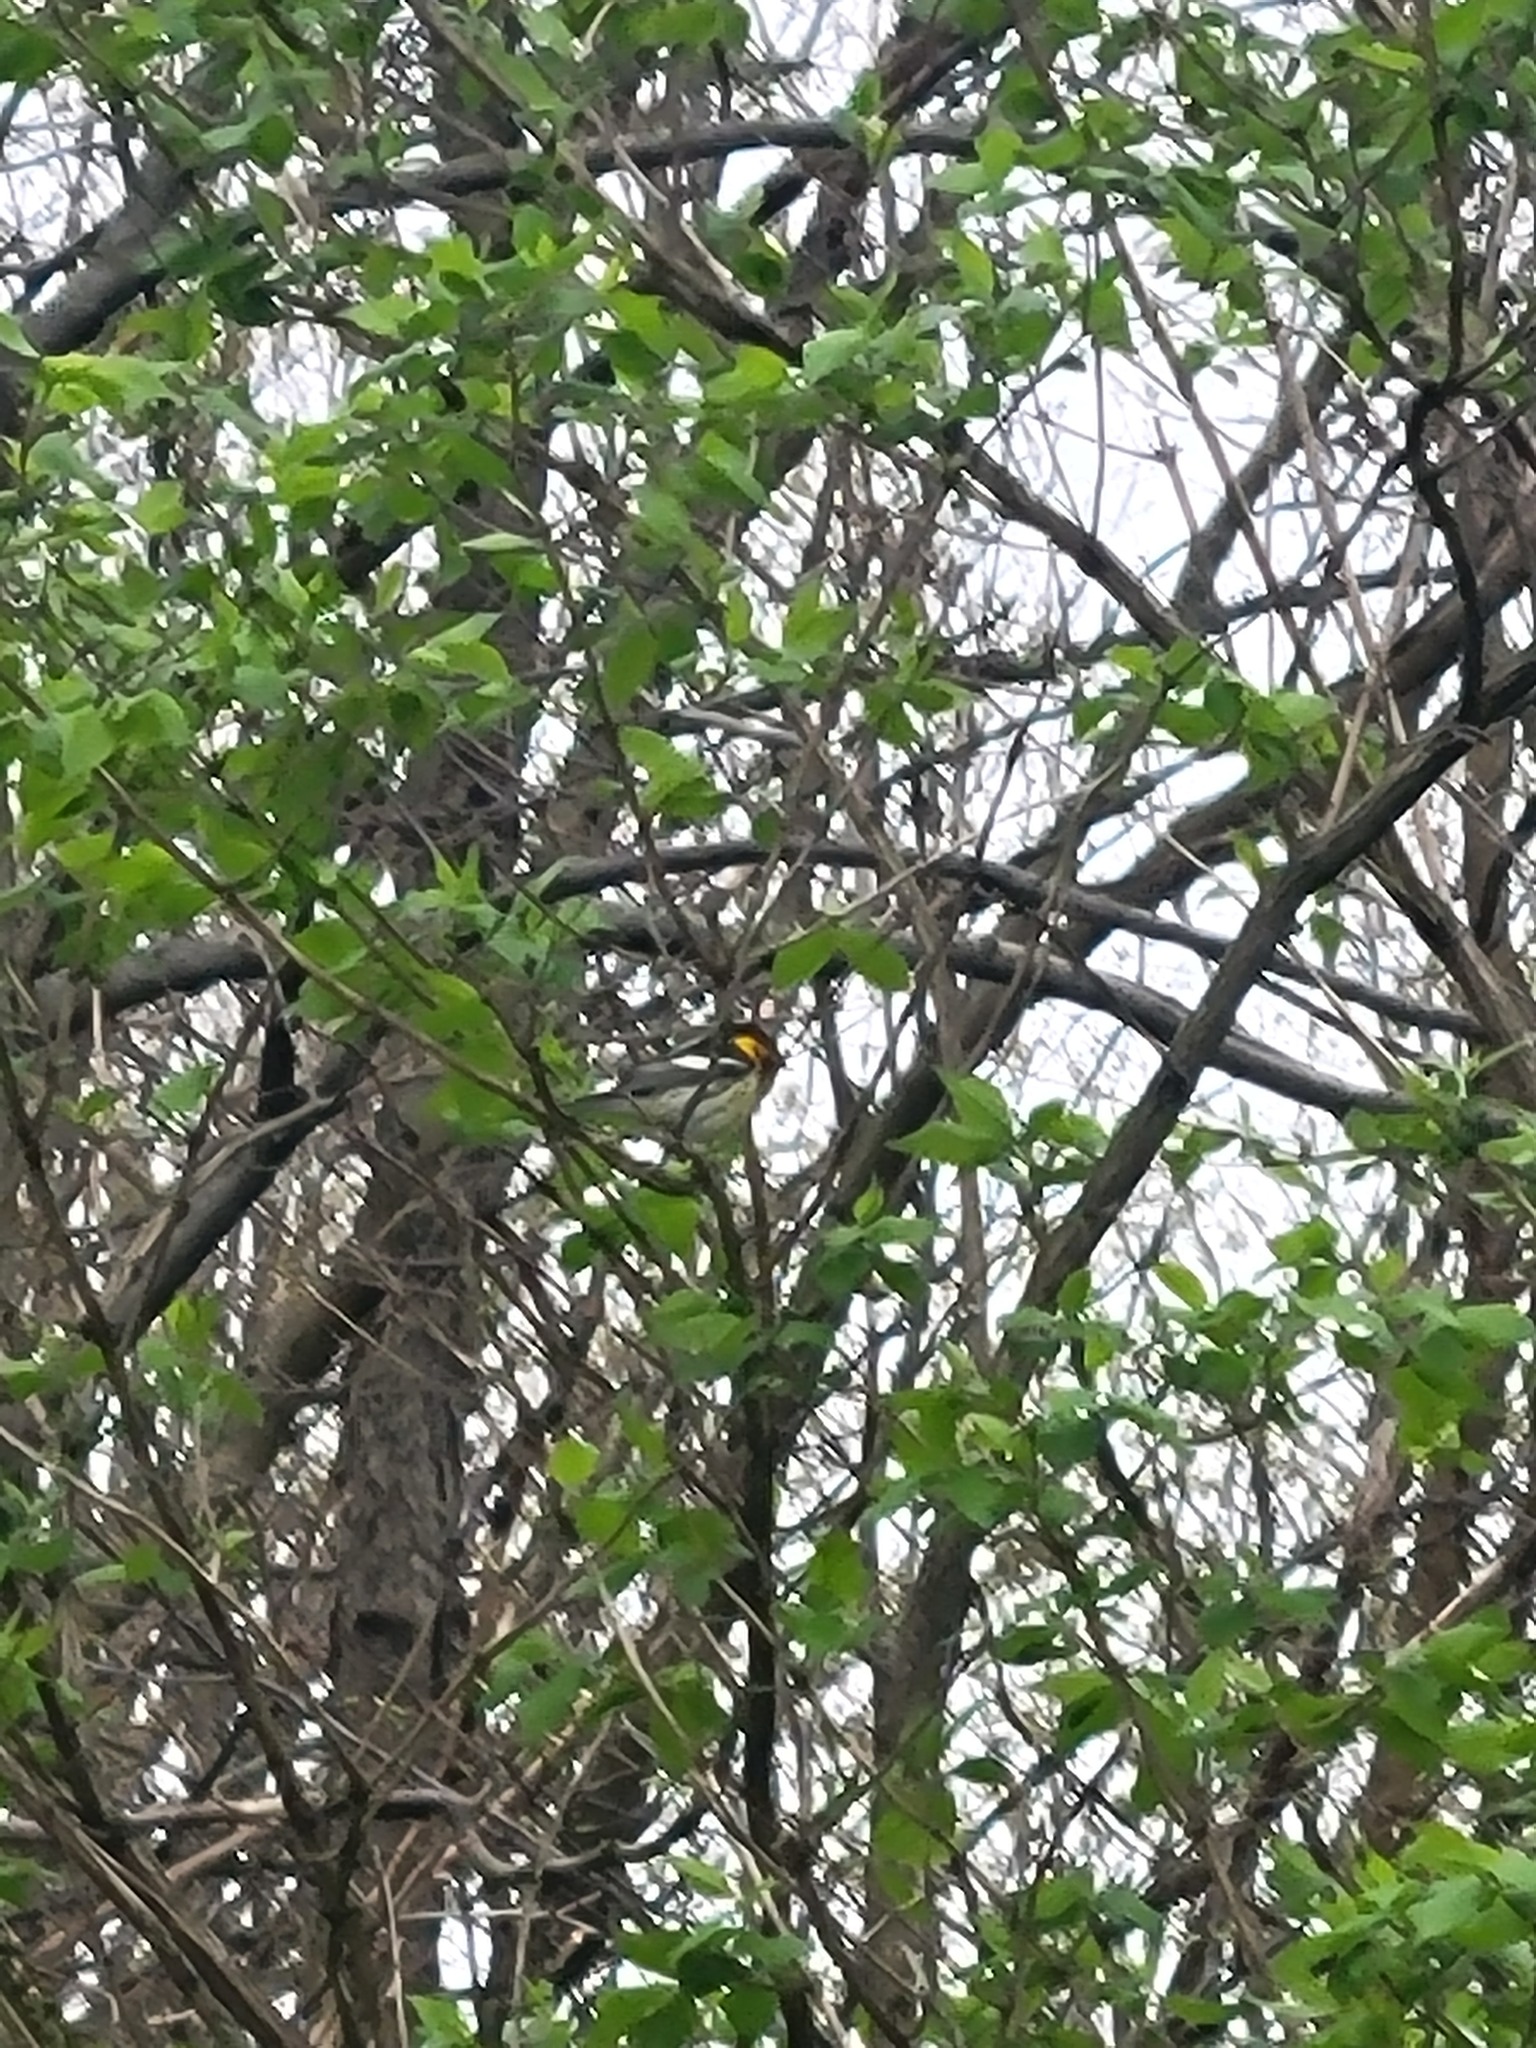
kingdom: Animalia
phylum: Chordata
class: Aves
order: Passeriformes
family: Parulidae
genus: Setophaga
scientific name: Setophaga fusca
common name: Blackburnian warbler
